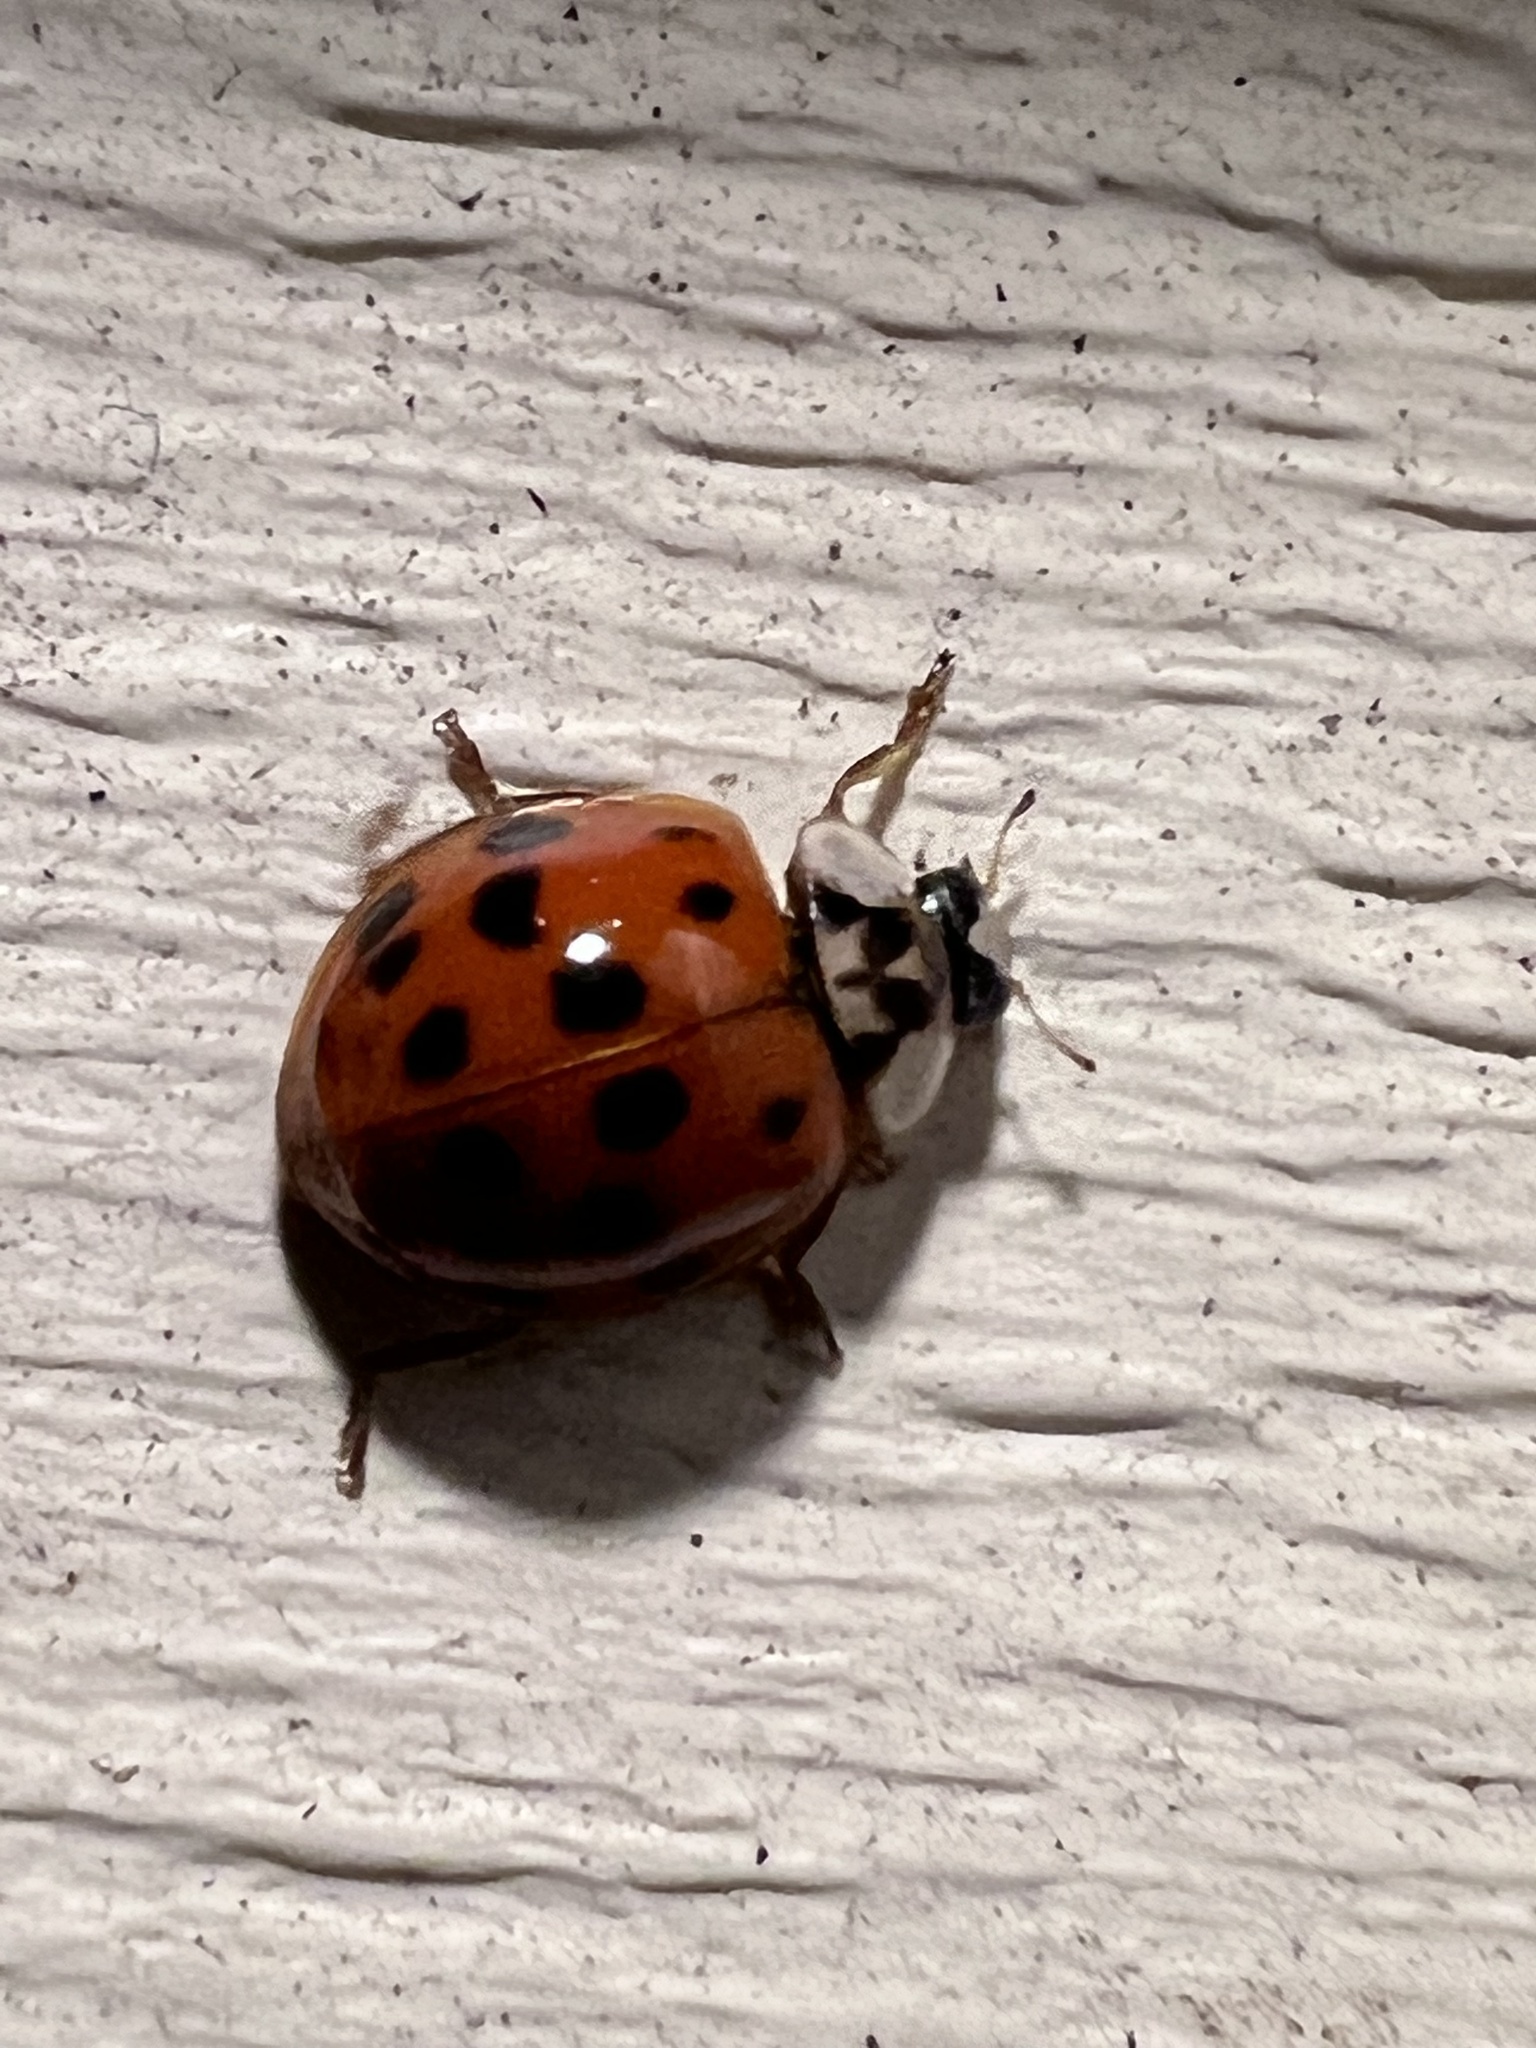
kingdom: Animalia
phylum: Arthropoda
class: Insecta
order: Coleoptera
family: Coccinellidae
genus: Harmonia
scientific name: Harmonia axyridis
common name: Harlequin ladybird
